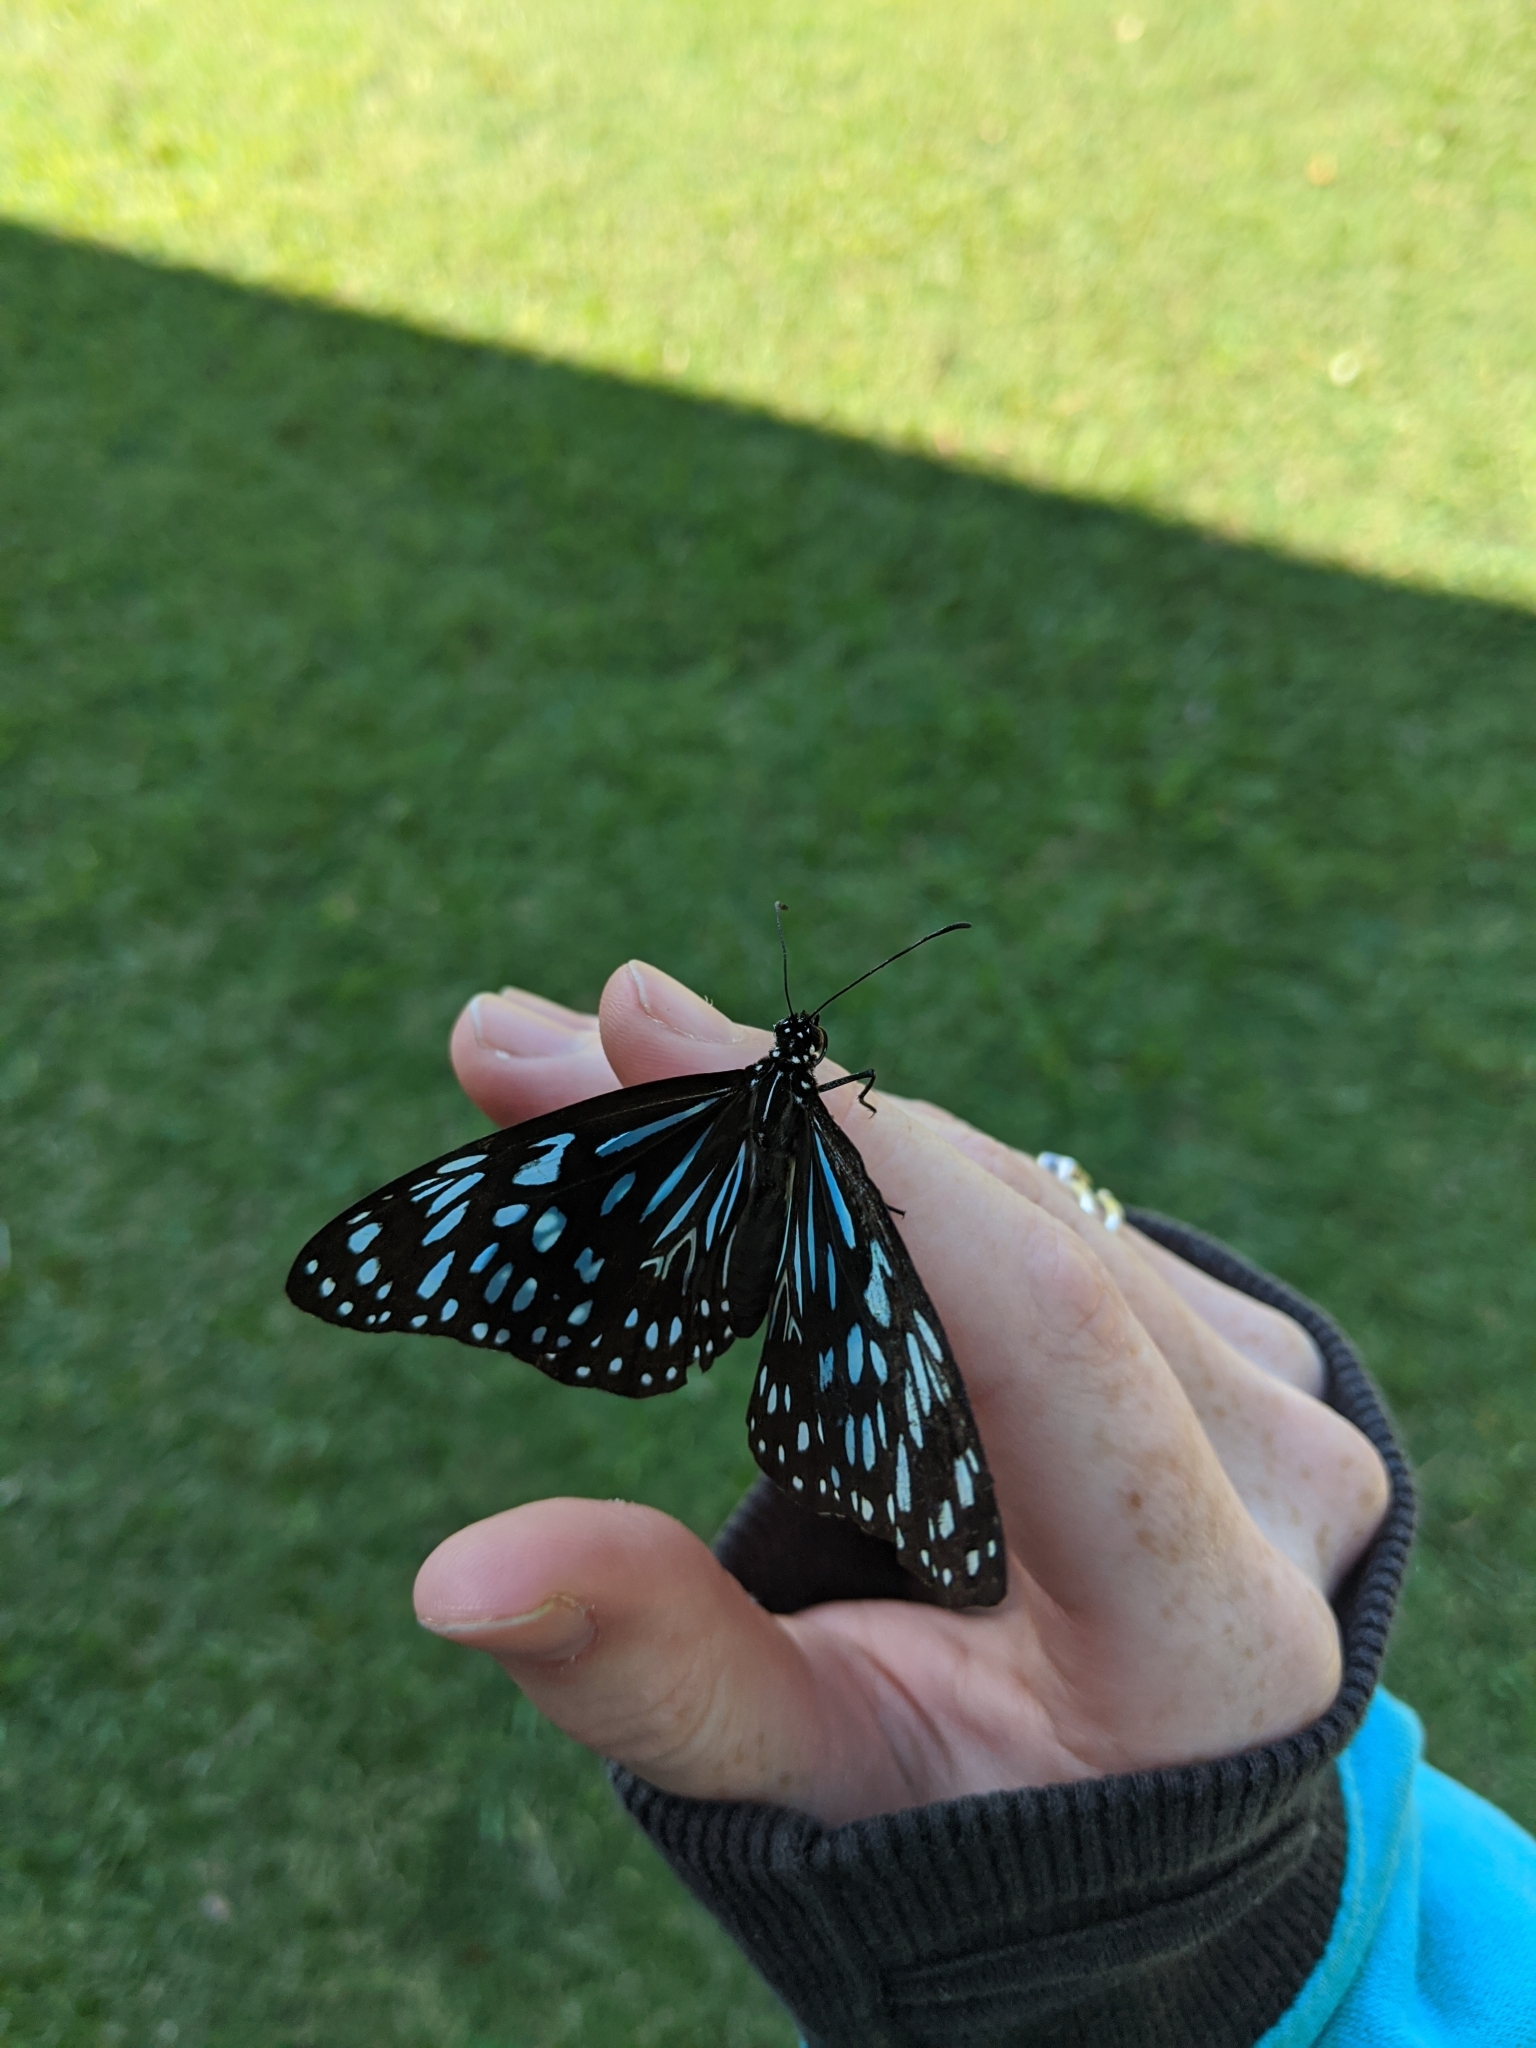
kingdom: Animalia
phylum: Arthropoda
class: Insecta
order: Lepidoptera
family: Nymphalidae
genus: Tirumala
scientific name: Tirumala hamata
